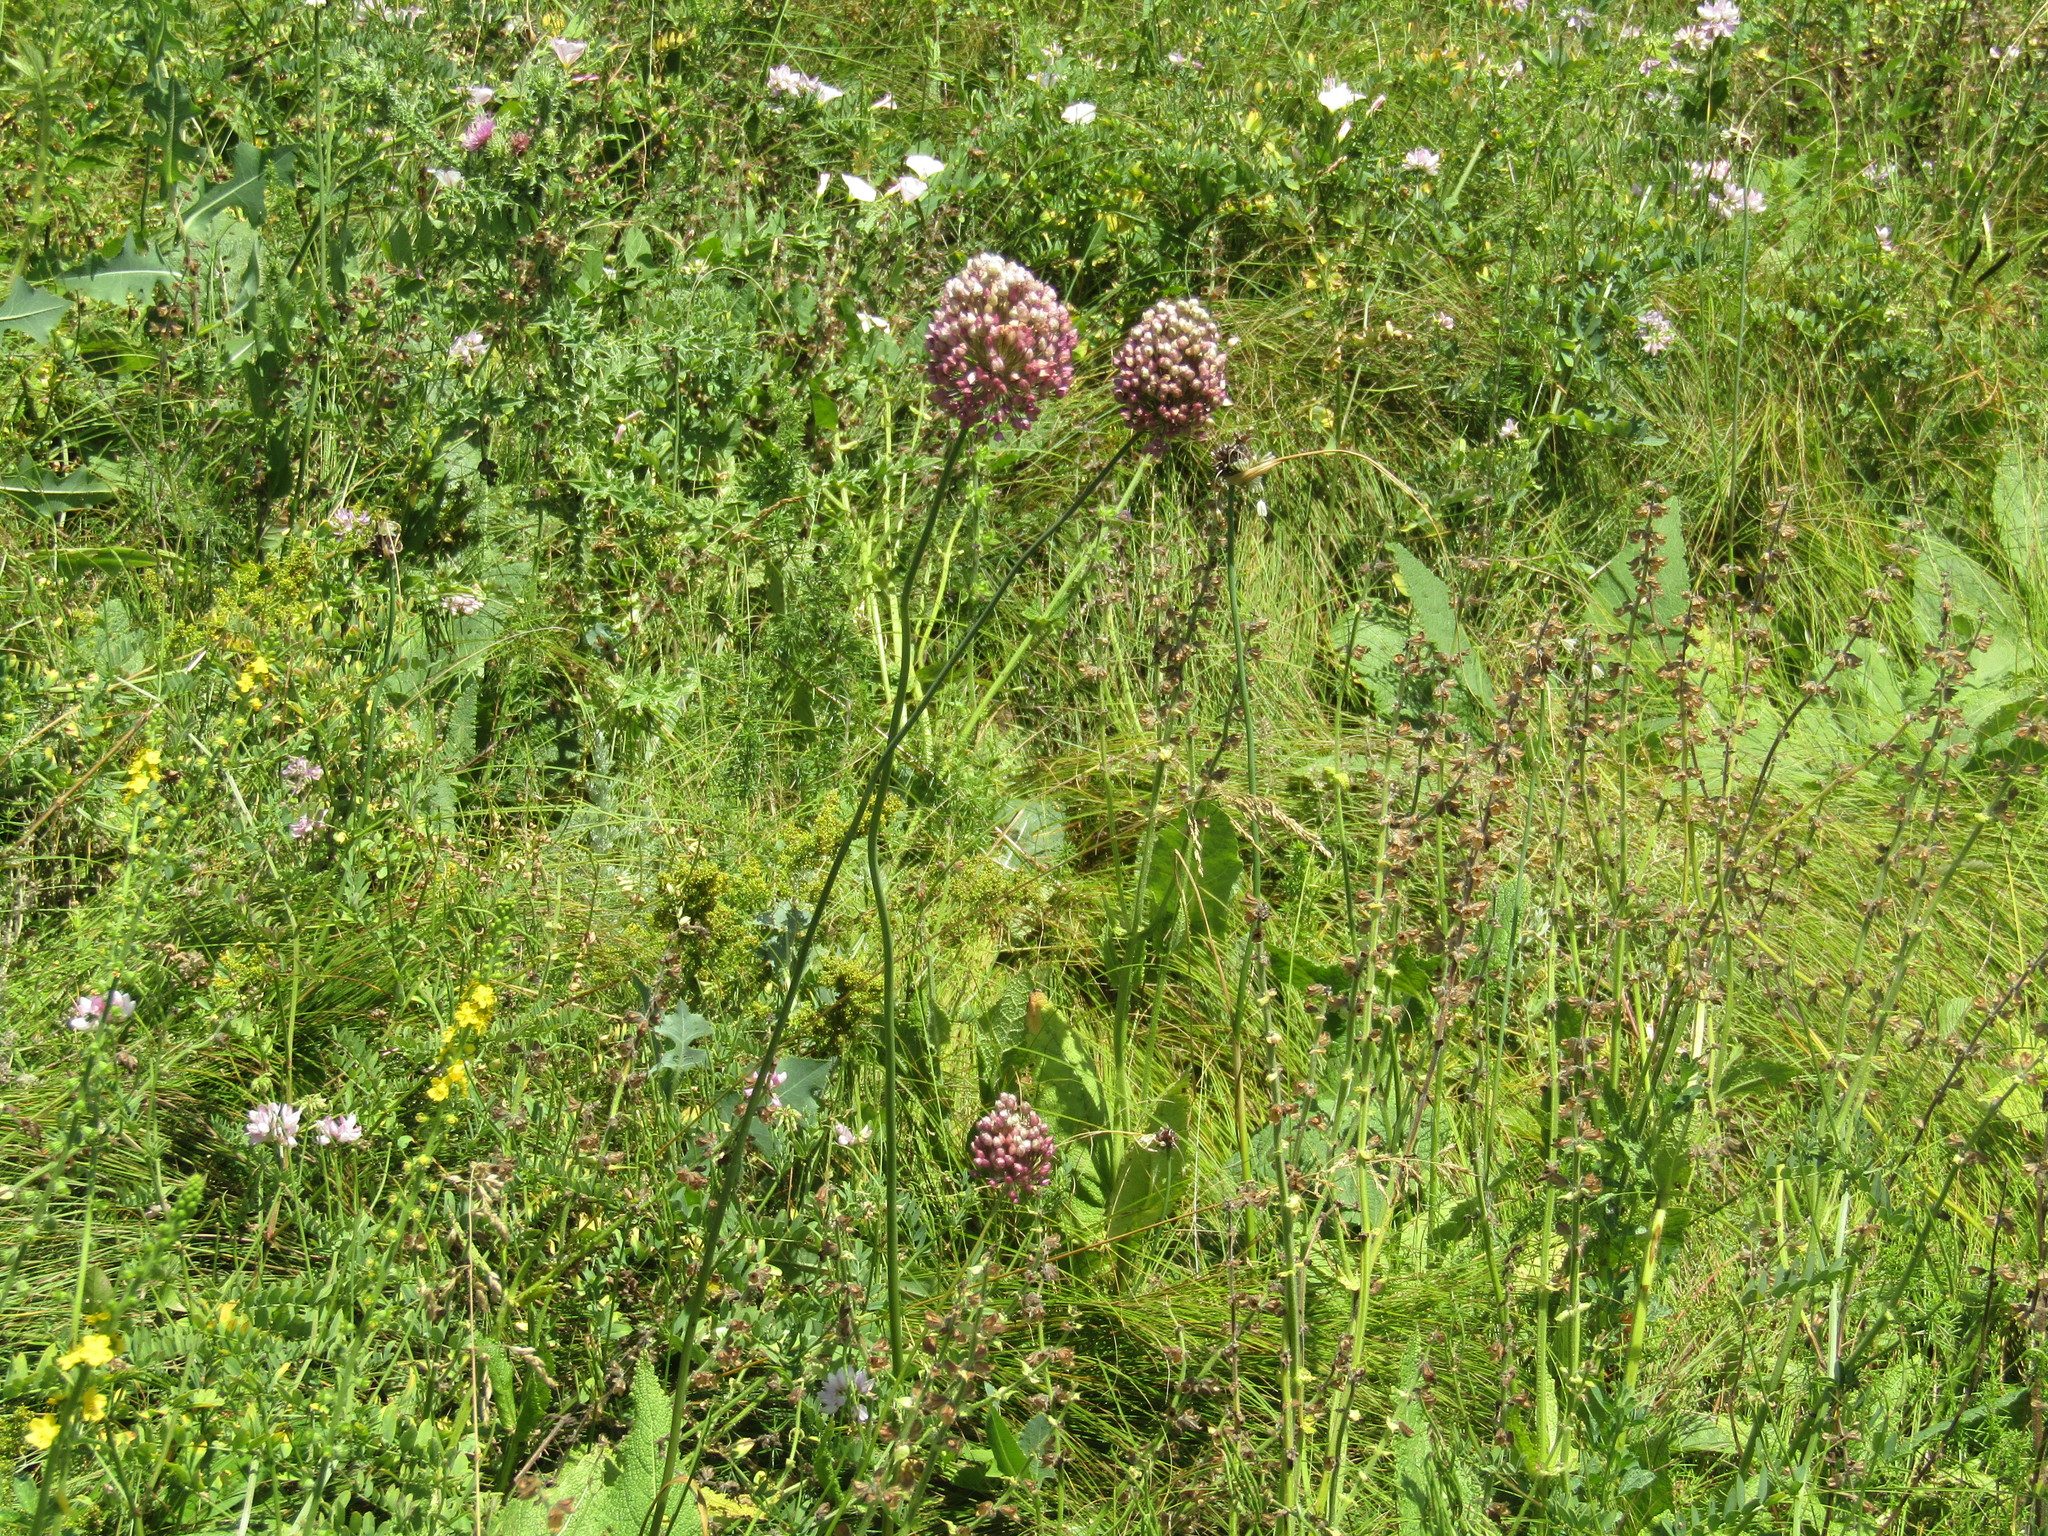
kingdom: Plantae
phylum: Tracheophyta
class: Liliopsida
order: Asparagales
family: Amaryllidaceae
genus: Allium
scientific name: Allium rotundum
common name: Sand leek
